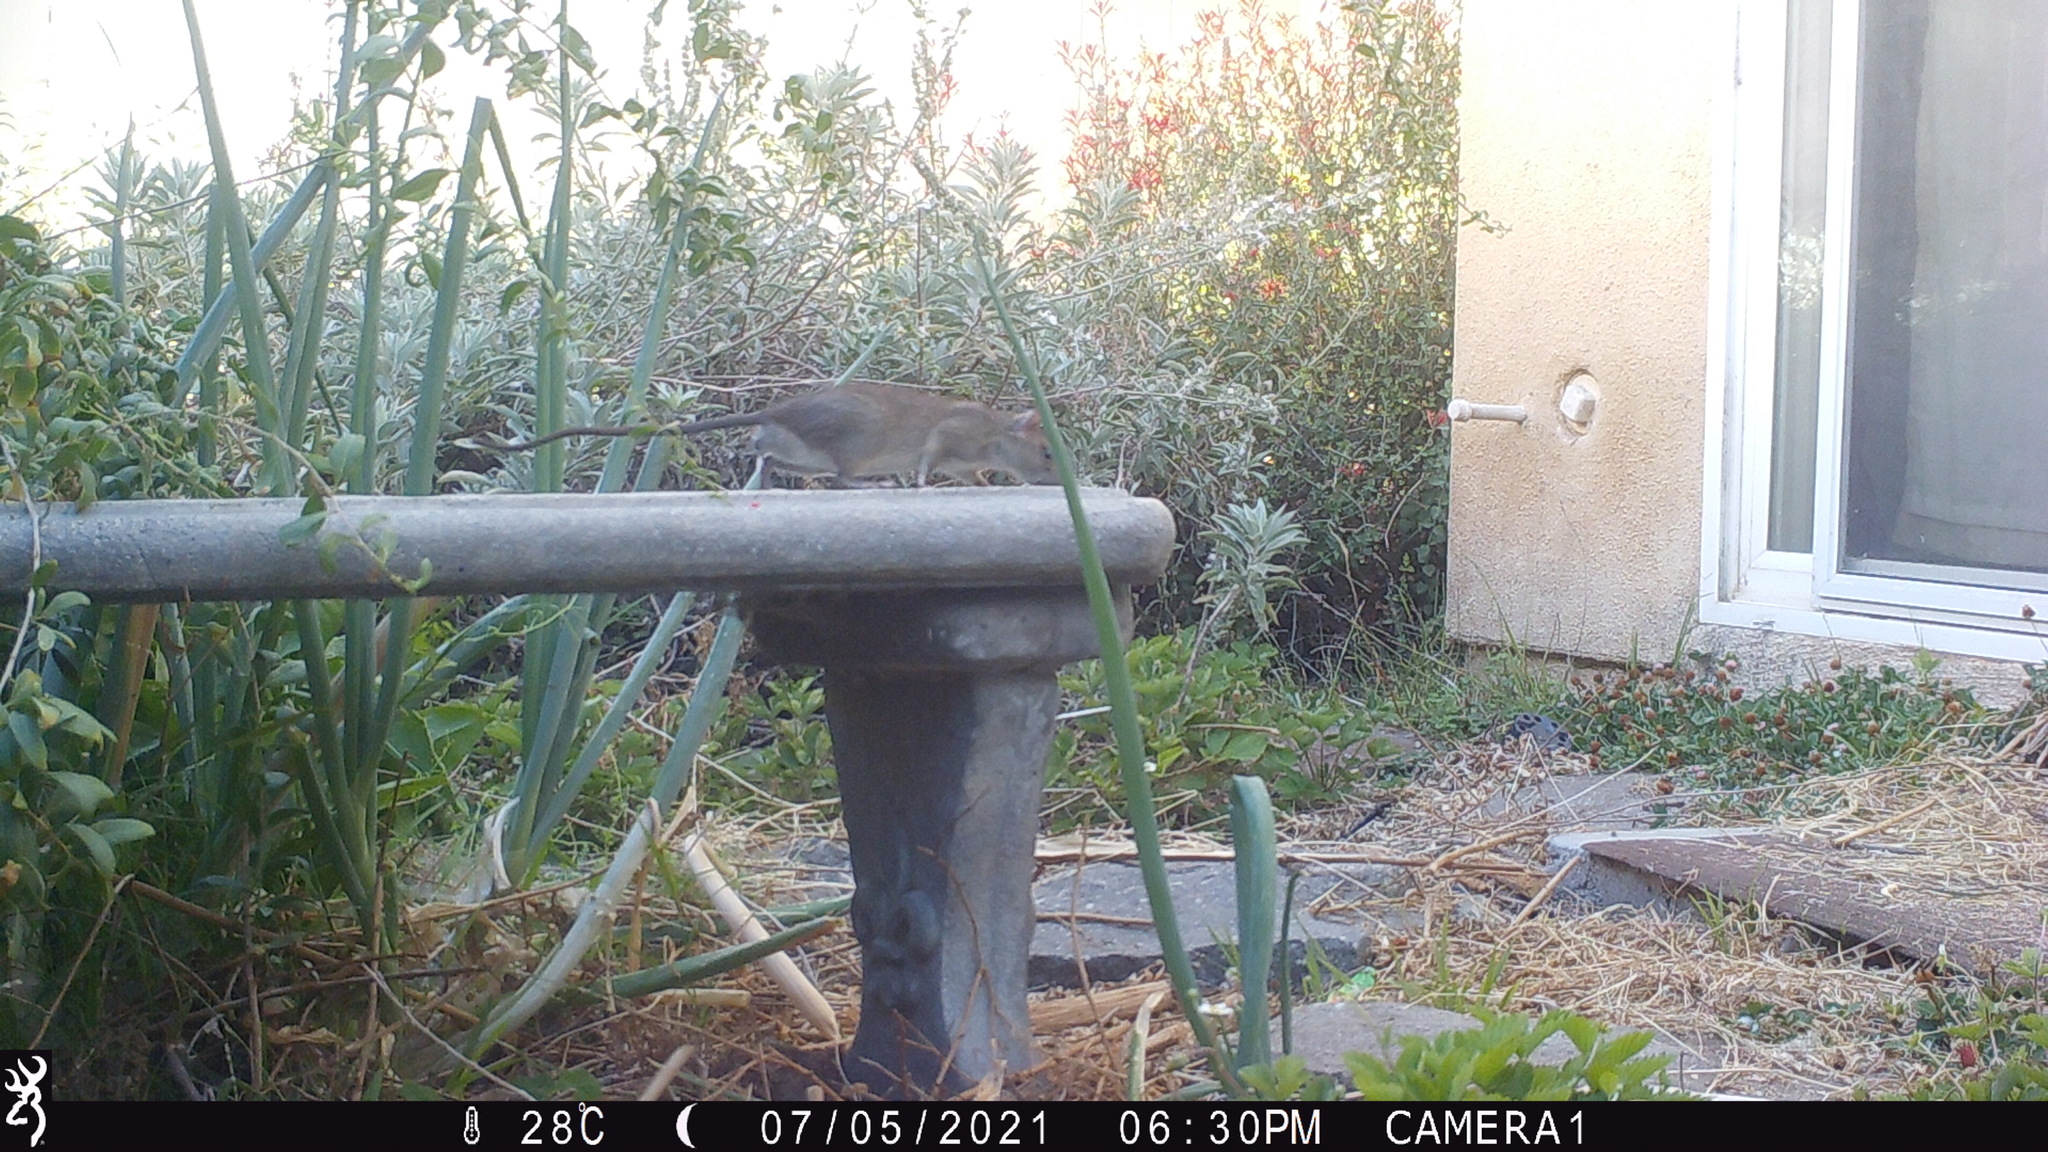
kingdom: Animalia
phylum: Chordata
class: Mammalia
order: Rodentia
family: Muridae
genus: Rattus
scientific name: Rattus rattus
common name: Black rat
